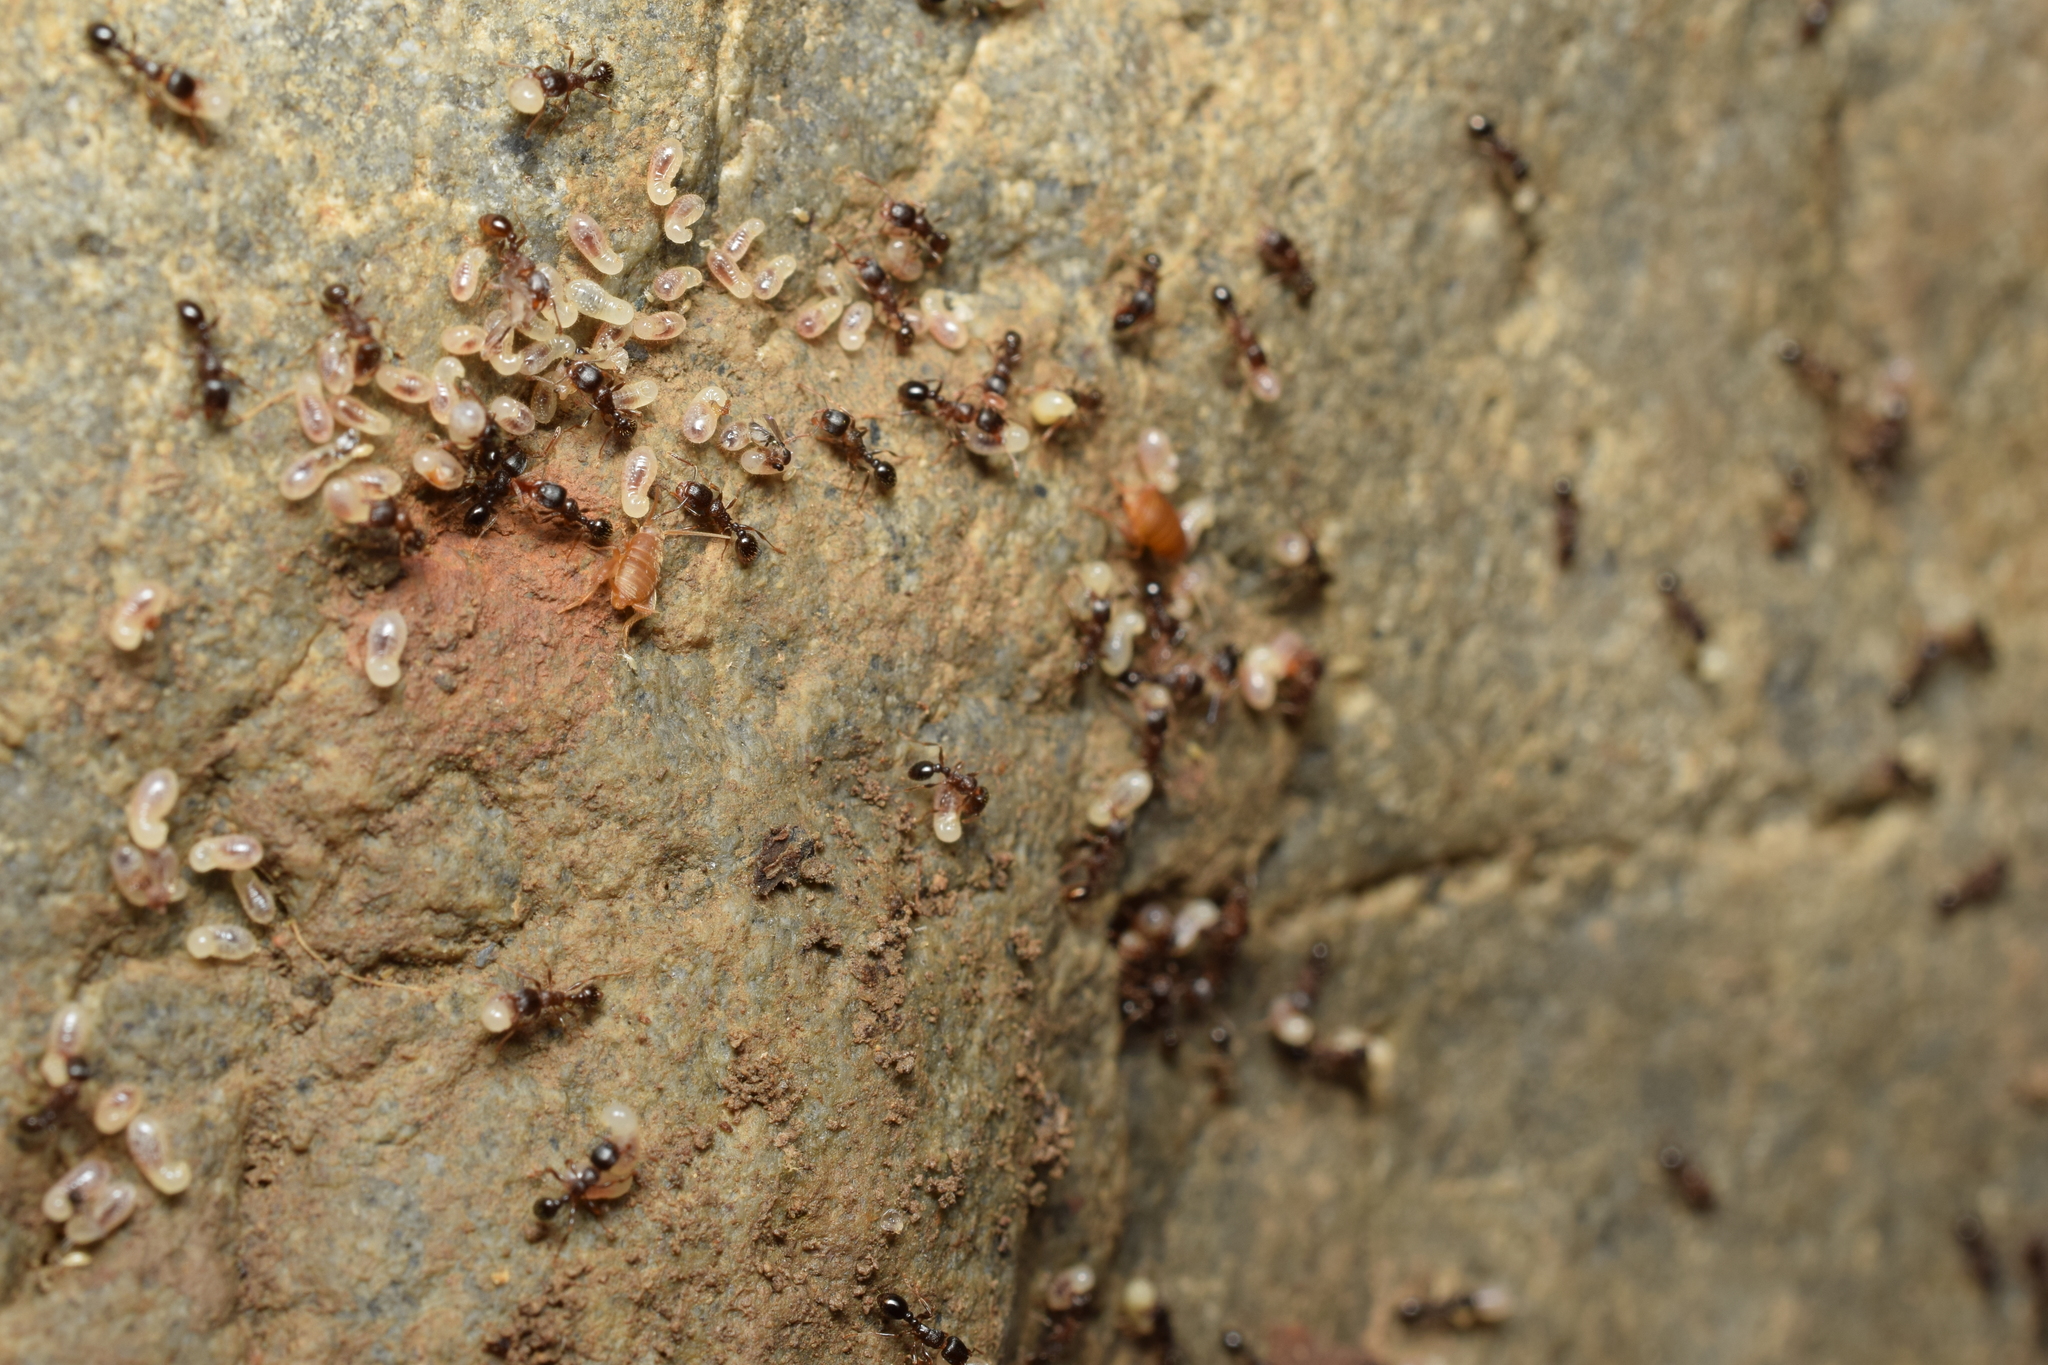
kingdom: Animalia
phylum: Arthropoda
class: Insecta
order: Orthoptera
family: Myrmecophilidae
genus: Myrmecophilus
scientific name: Myrmecophilus tetramorii
